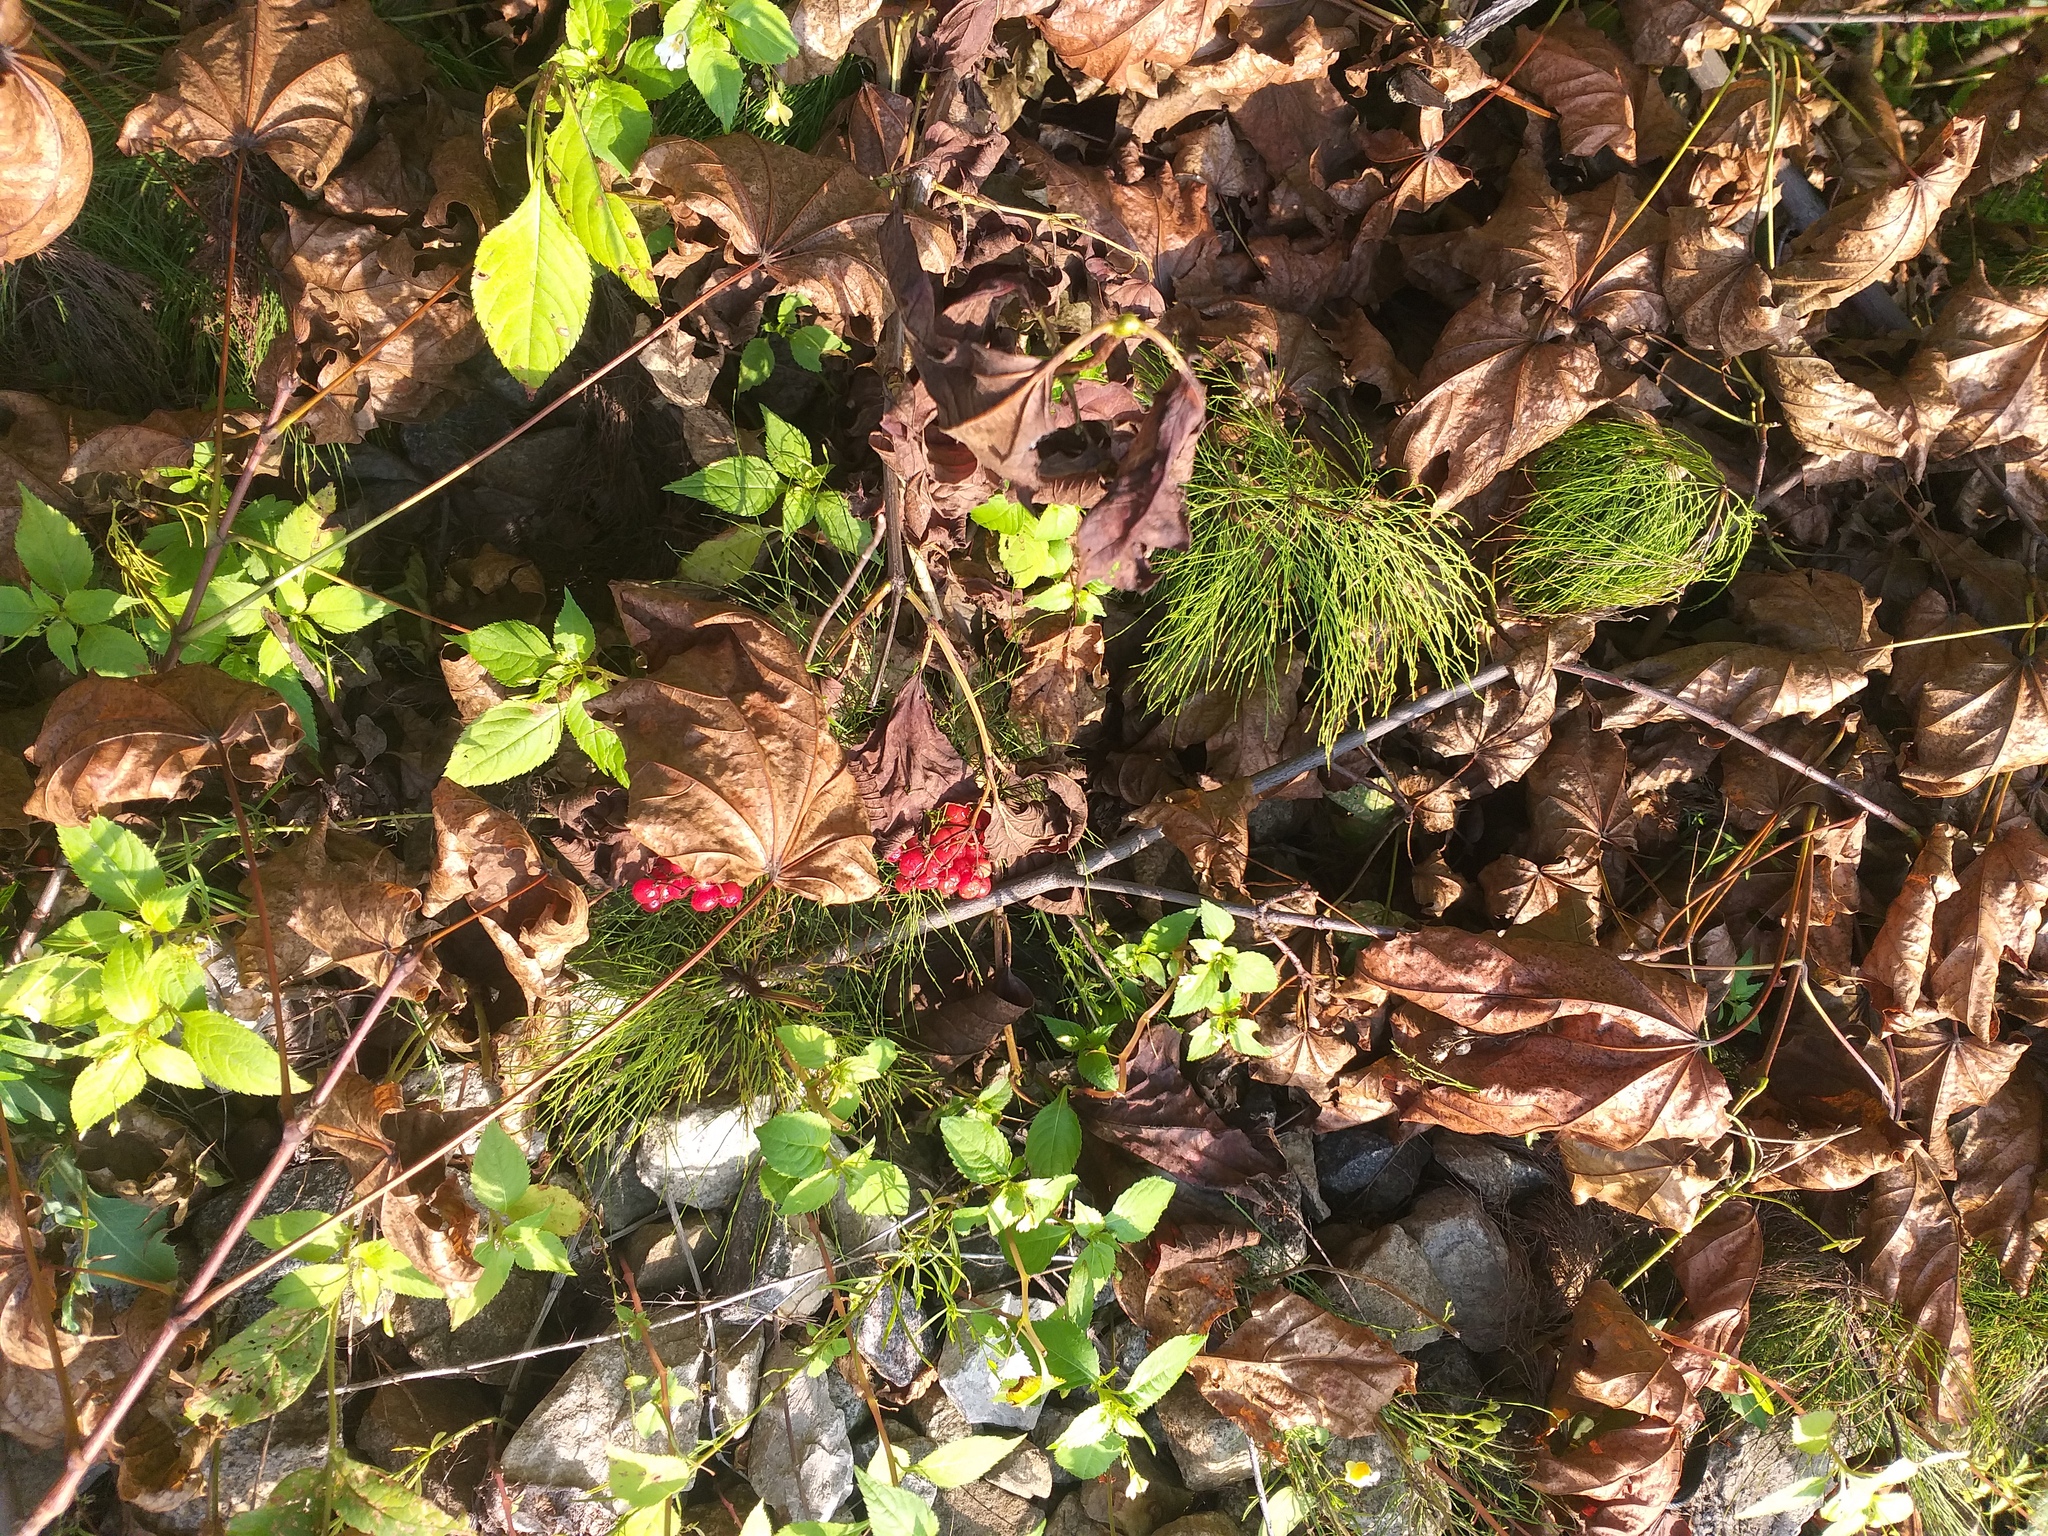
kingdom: Plantae
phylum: Tracheophyta
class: Magnoliopsida
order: Dipsacales
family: Viburnaceae
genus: Viburnum
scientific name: Viburnum opulus
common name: Guelder-rose
